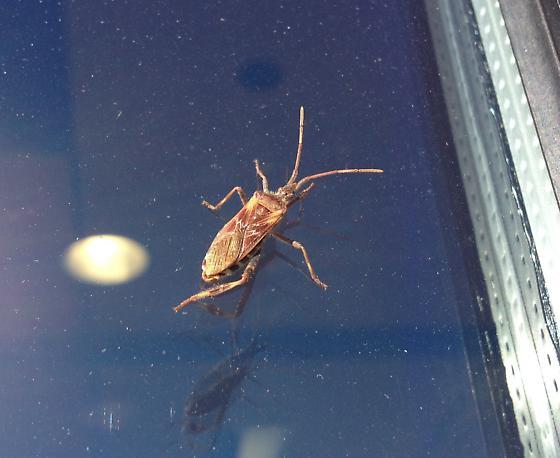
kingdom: Animalia
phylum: Arthropoda
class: Insecta
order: Hemiptera
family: Coreidae
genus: Leptoglossus
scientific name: Leptoglossus occidentalis
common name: Western conifer-seed bug
